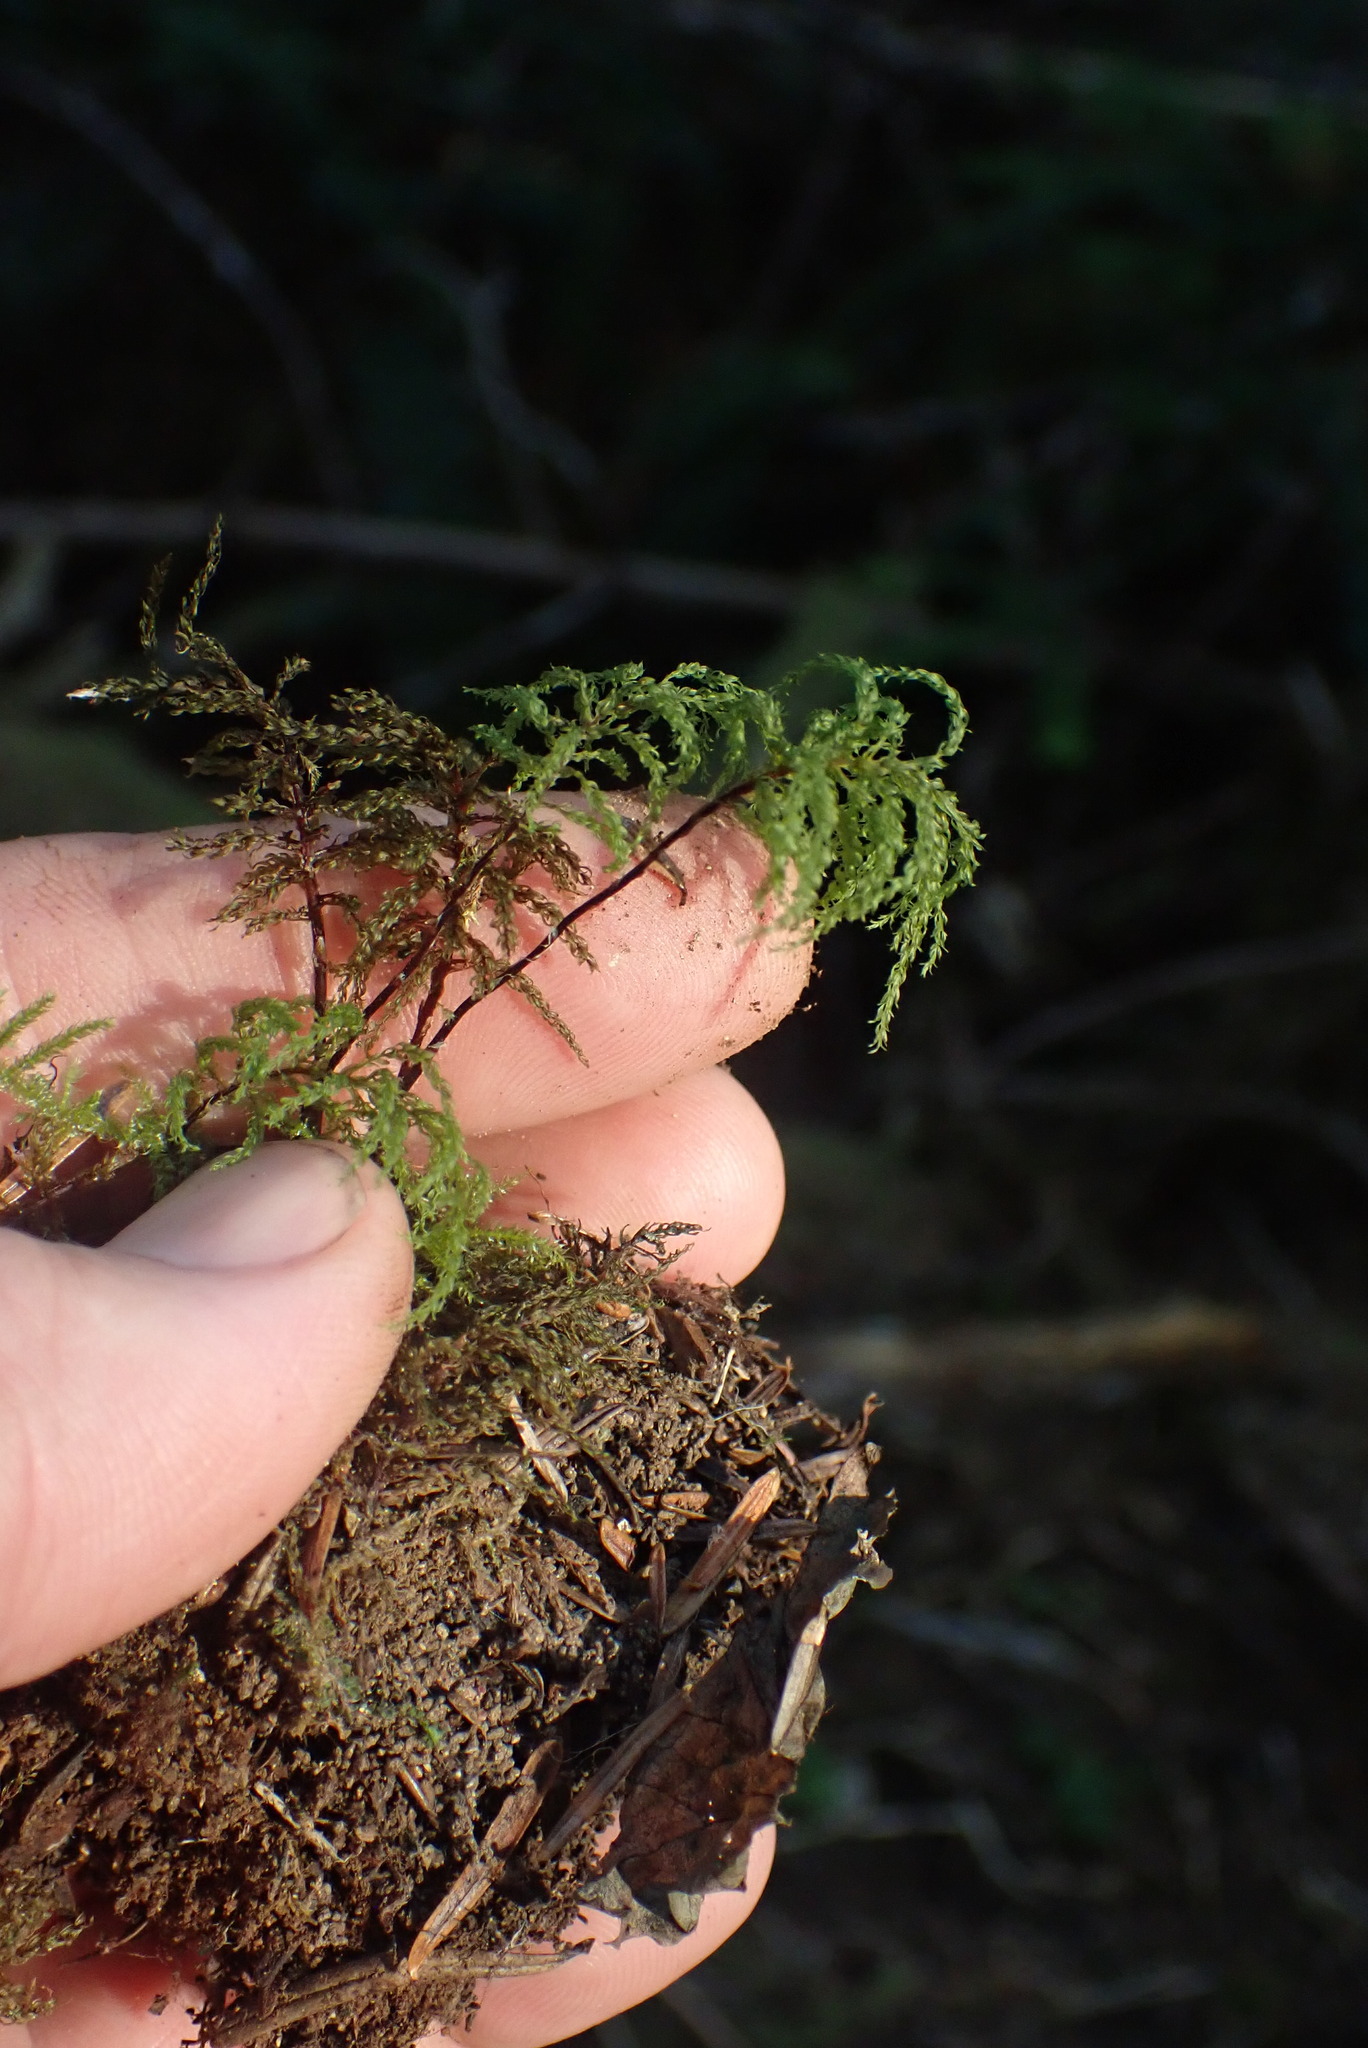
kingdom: Plantae
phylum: Bryophyta
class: Bryopsida
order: Bryales
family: Mniaceae
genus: Leucolepis
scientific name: Leucolepis acanthoneura
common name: Leucolepis umbrella moss
